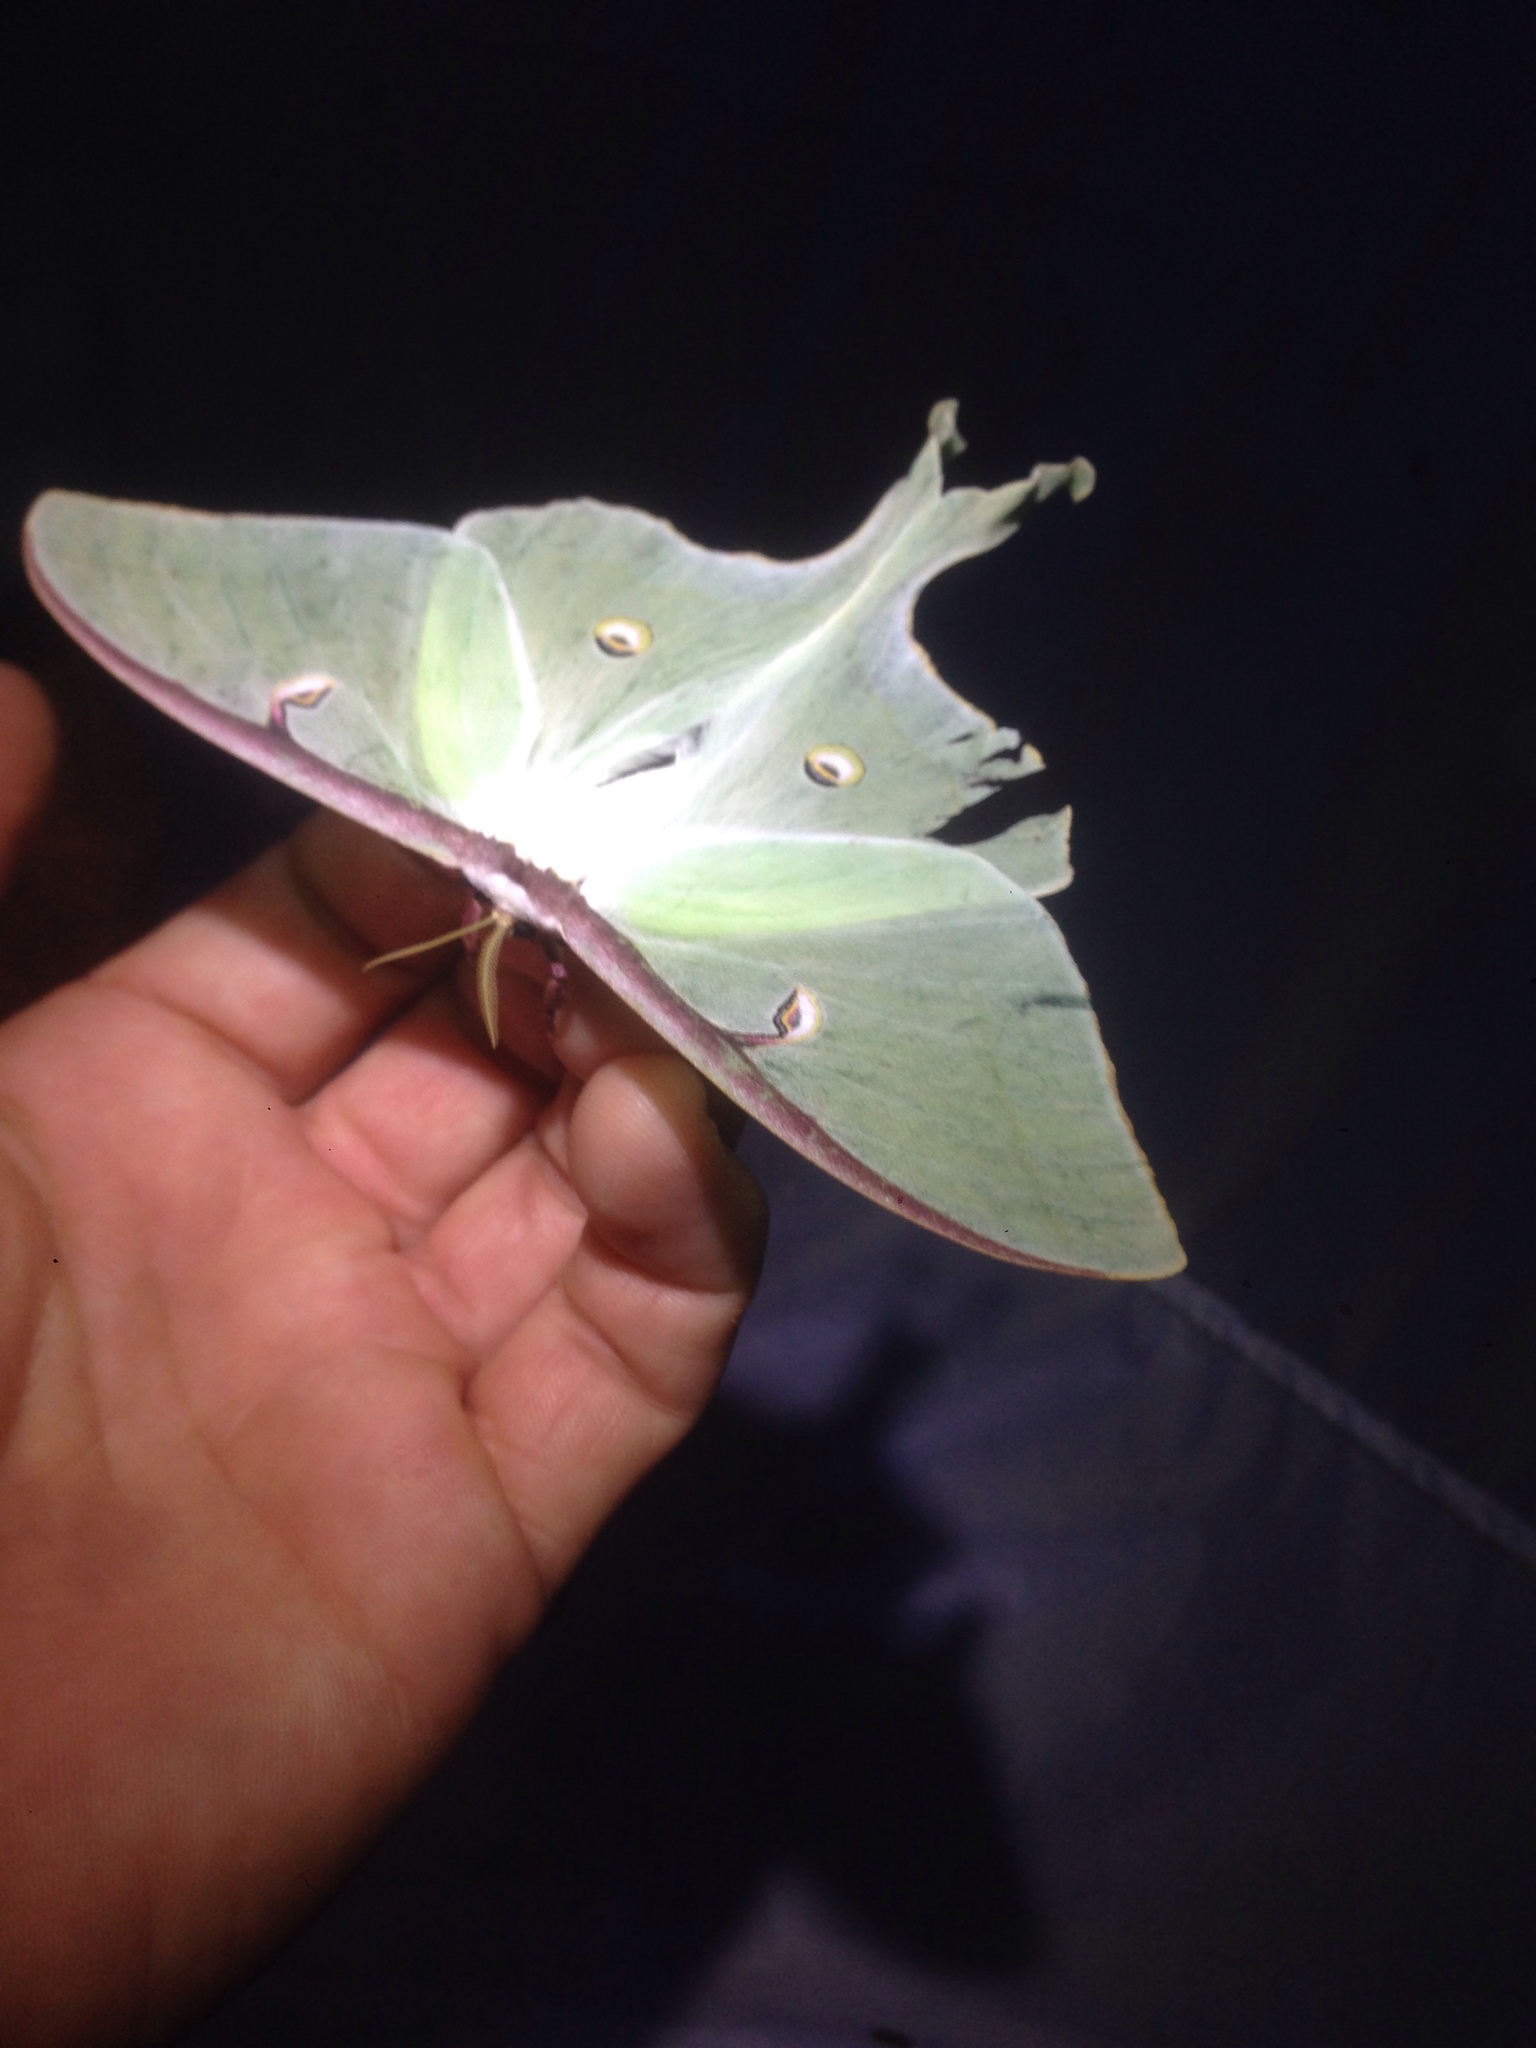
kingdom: Animalia
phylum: Arthropoda
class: Insecta
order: Lepidoptera
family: Saturniidae
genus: Actias
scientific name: Actias luna
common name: Luna moth
